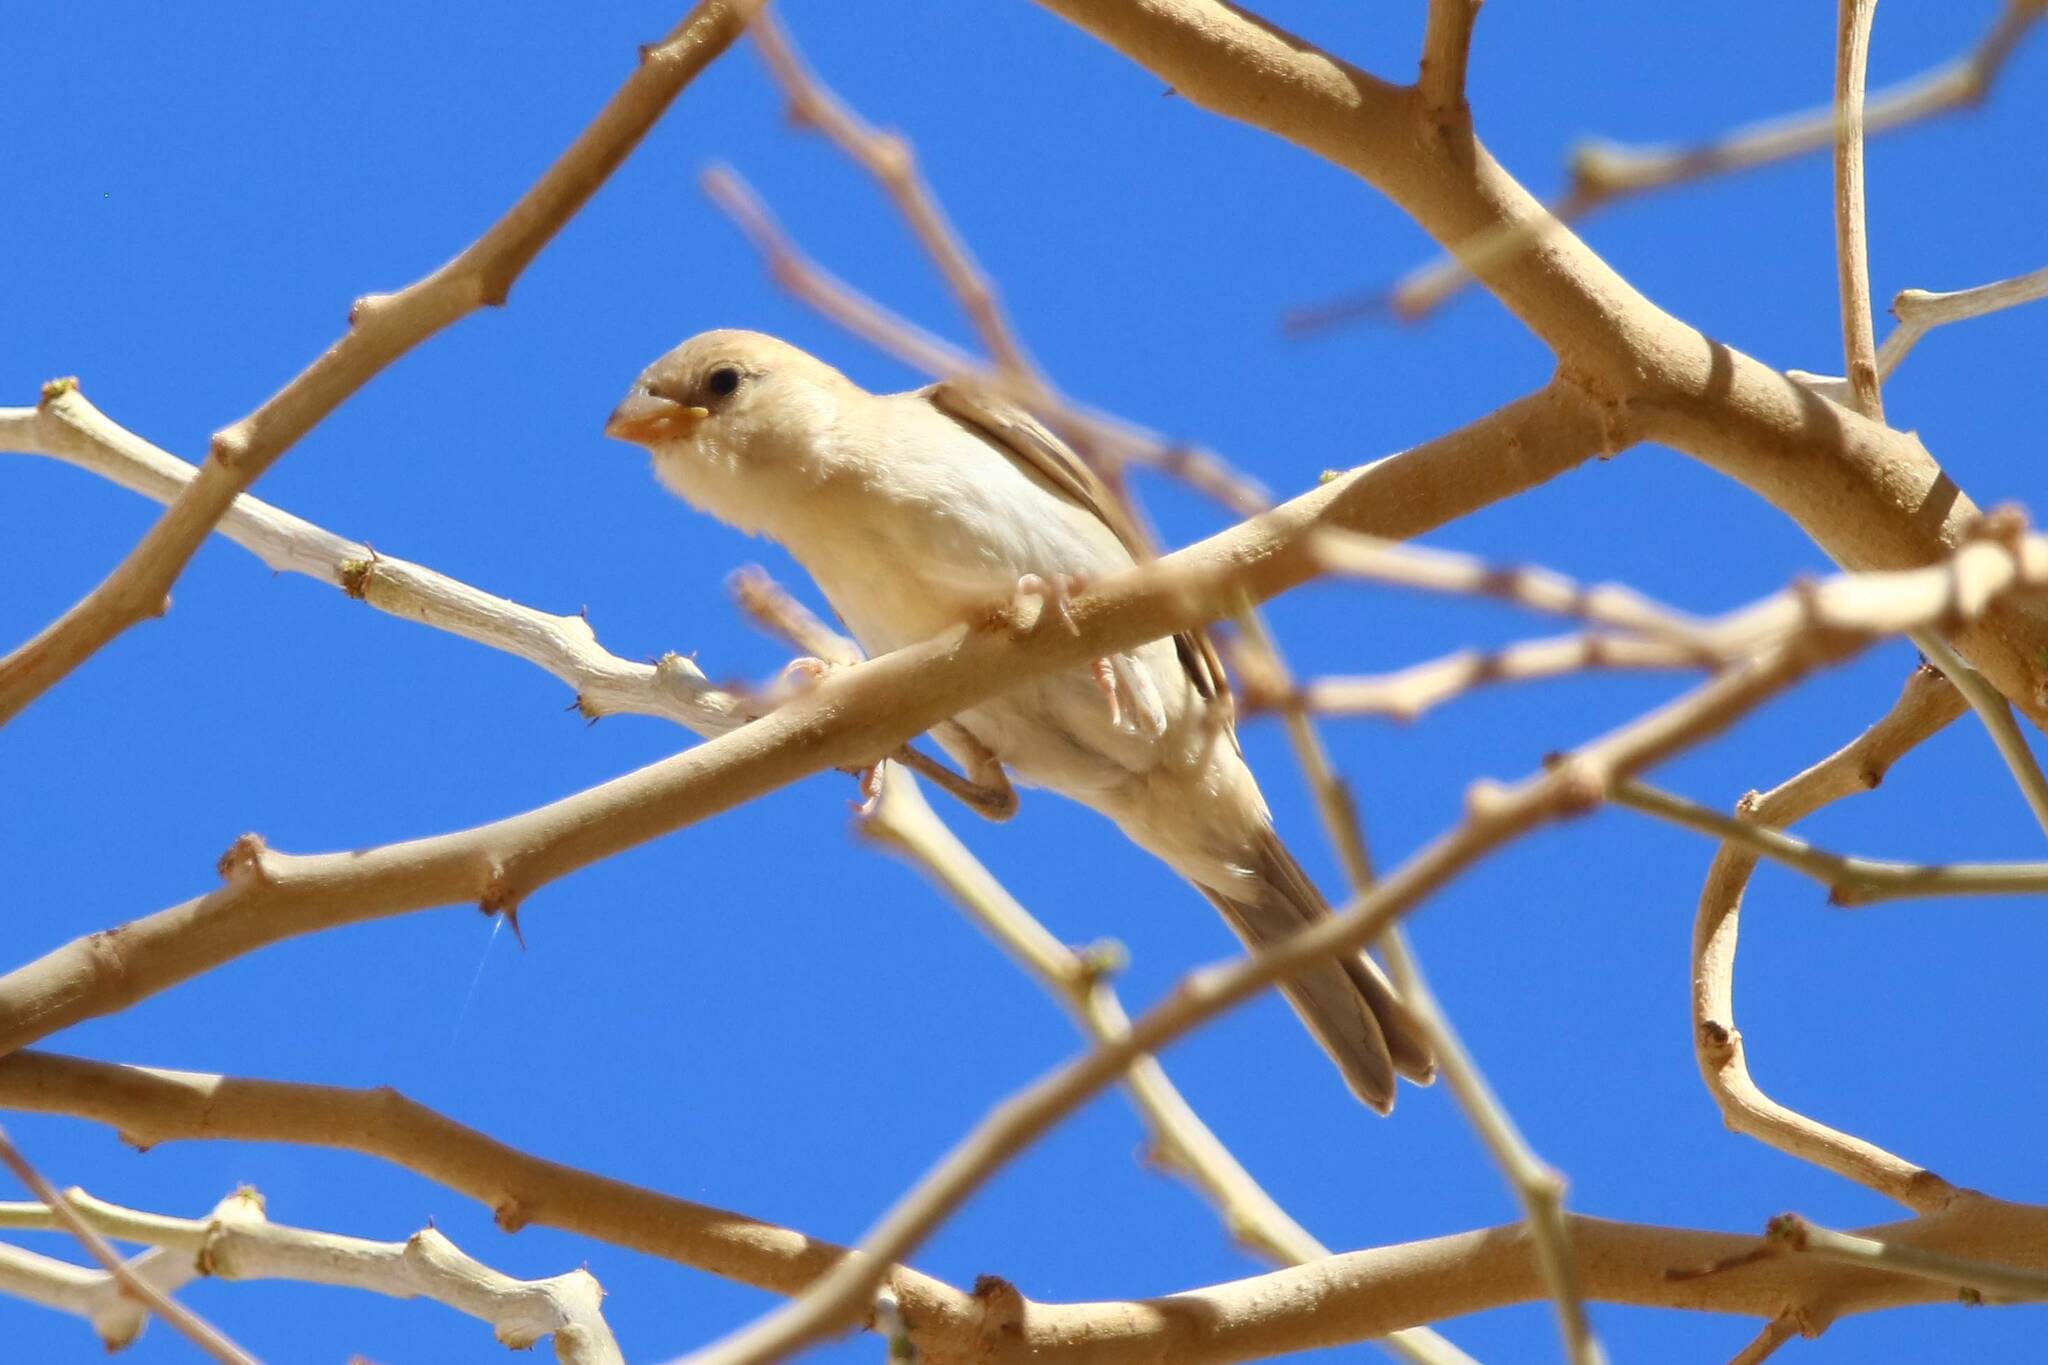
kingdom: Animalia
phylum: Chordata
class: Aves
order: Passeriformes
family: Passeridae
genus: Passer
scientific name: Passer simplex
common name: Desert sparrow
